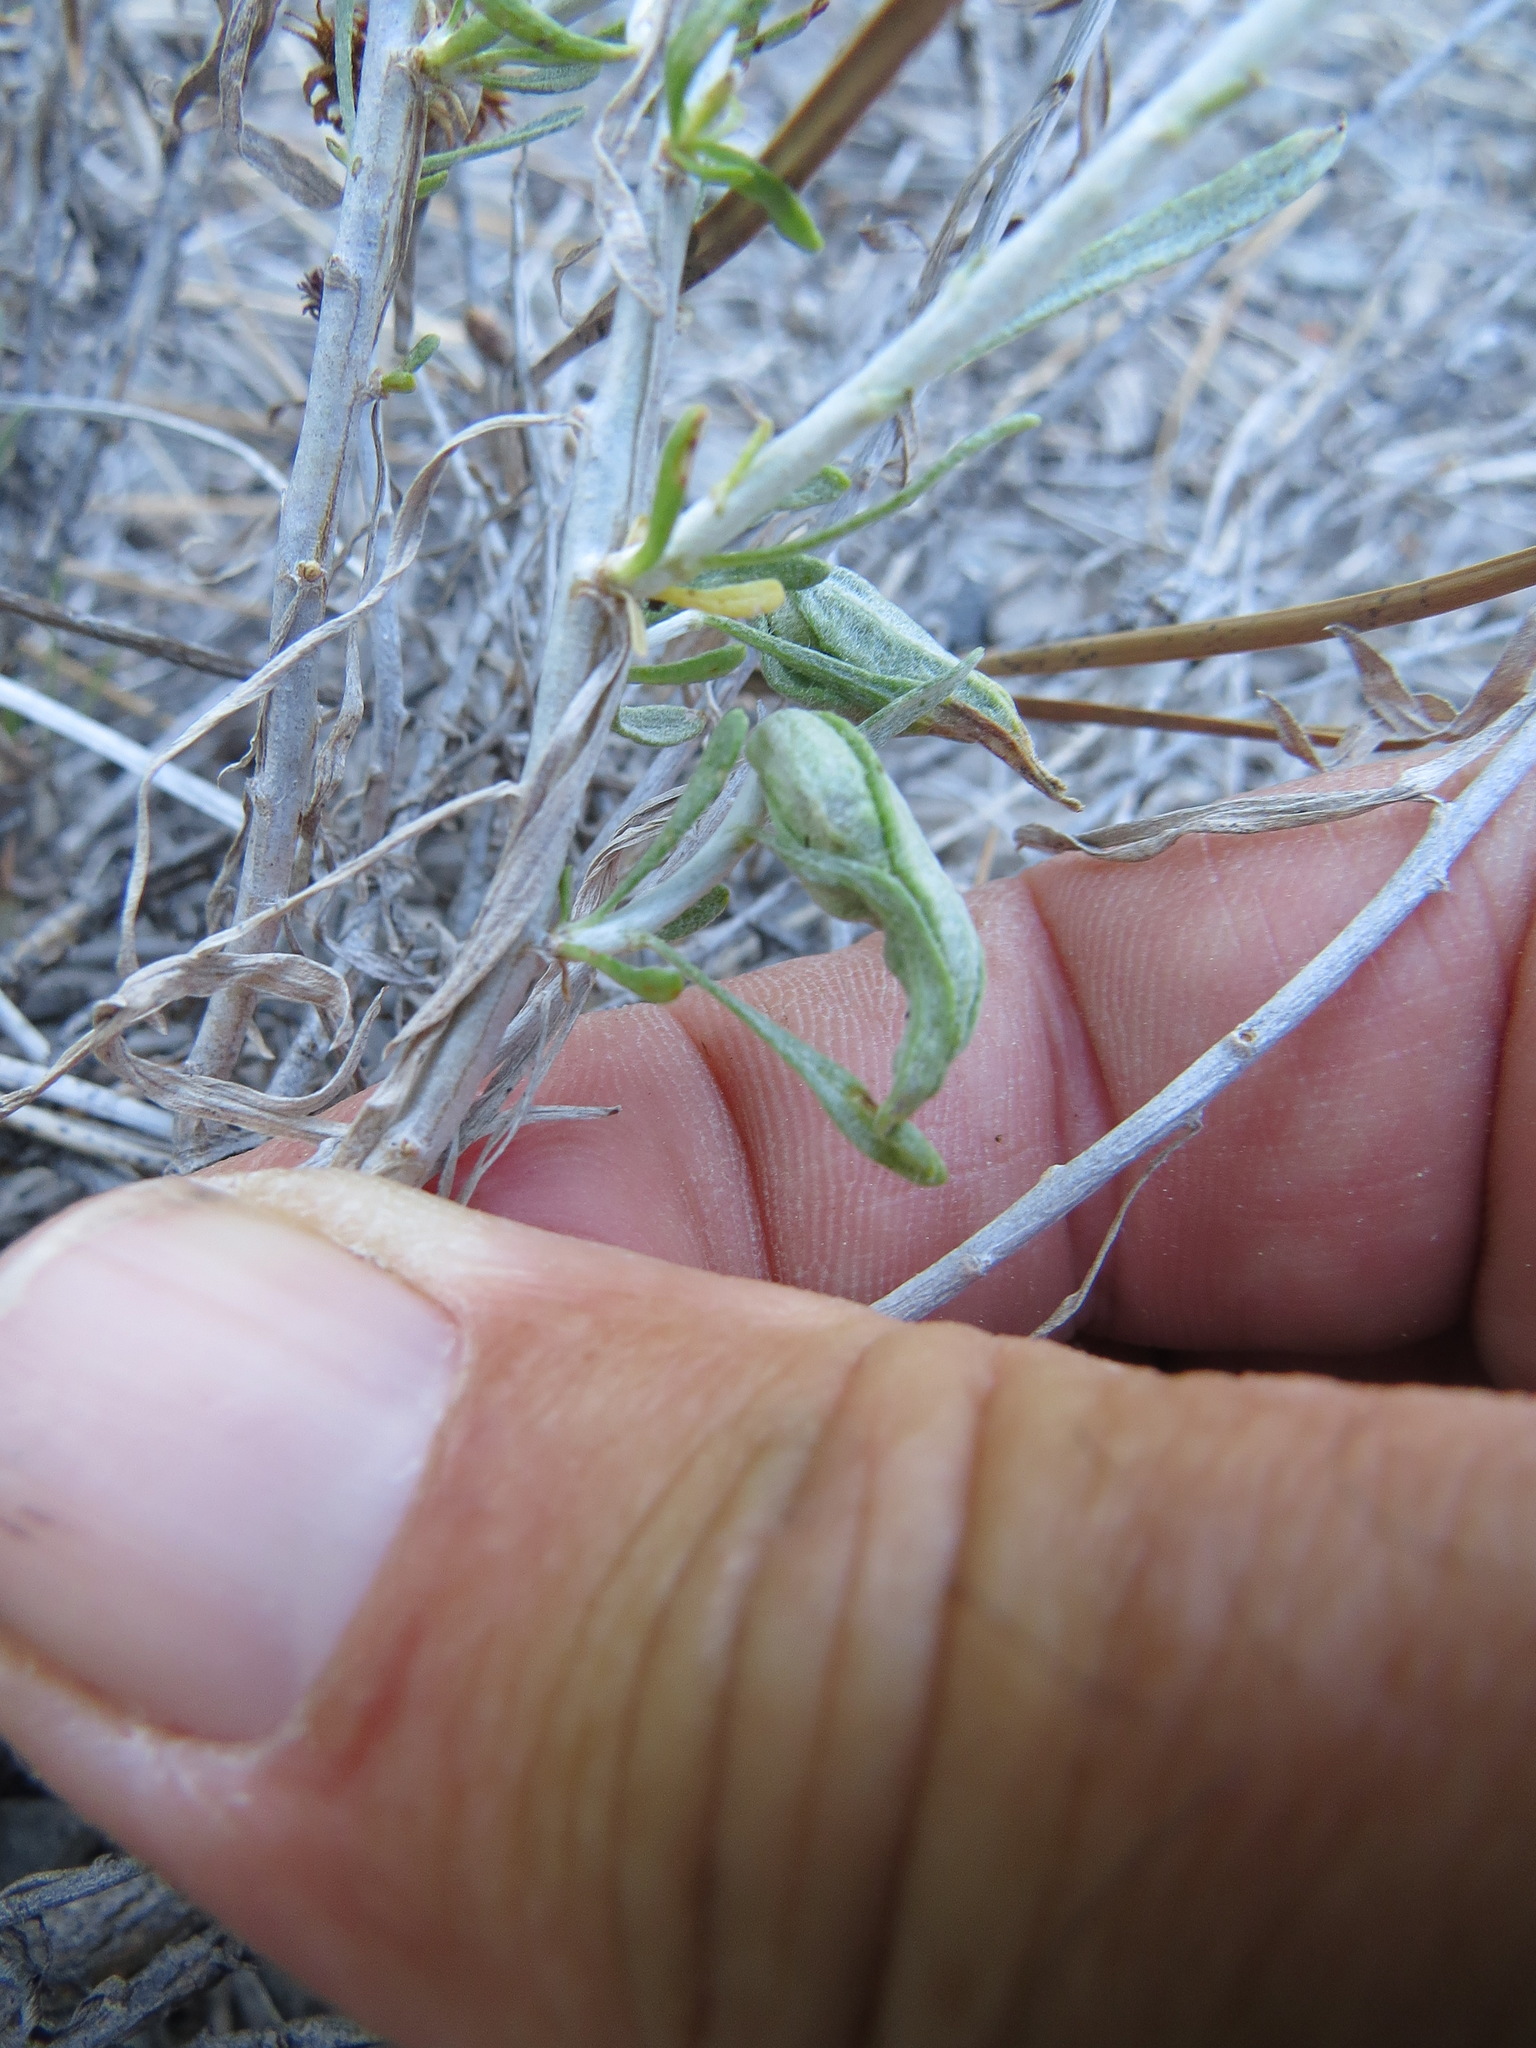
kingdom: Animalia
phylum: Arthropoda
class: Insecta
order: Lepidoptera
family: Gelechiidae
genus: Gnorimoschema
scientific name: Gnorimoschema octomaculella
